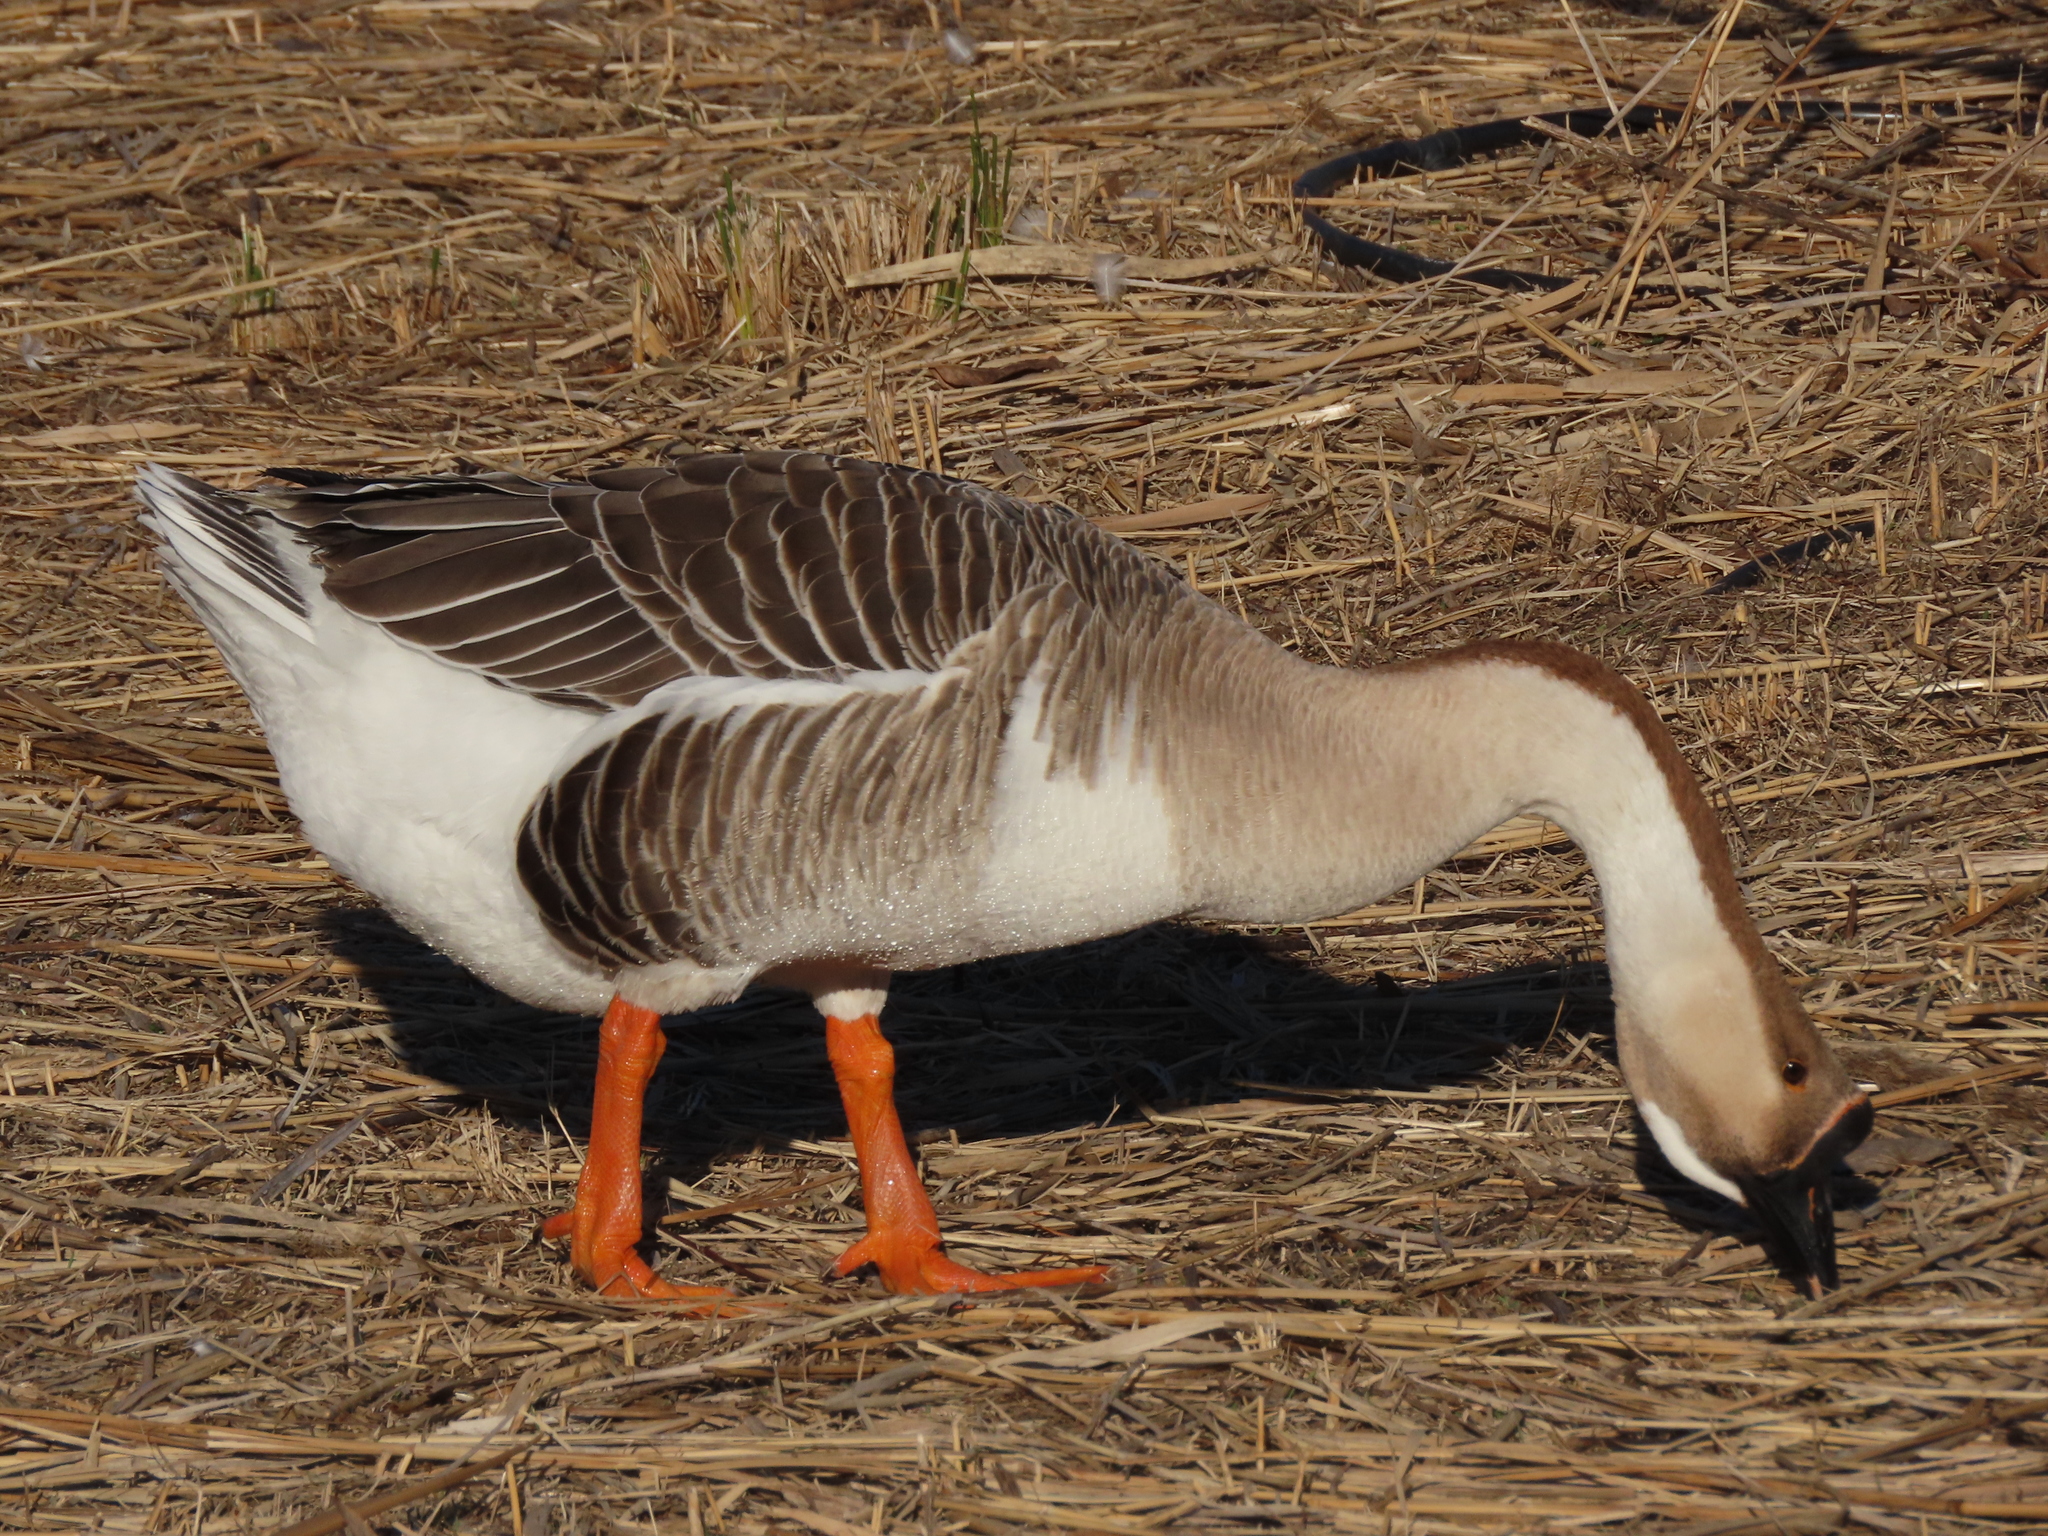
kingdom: Animalia
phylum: Chordata
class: Aves
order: Anseriformes
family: Anatidae
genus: Anser
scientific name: Anser cygnoides
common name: Swan goose
